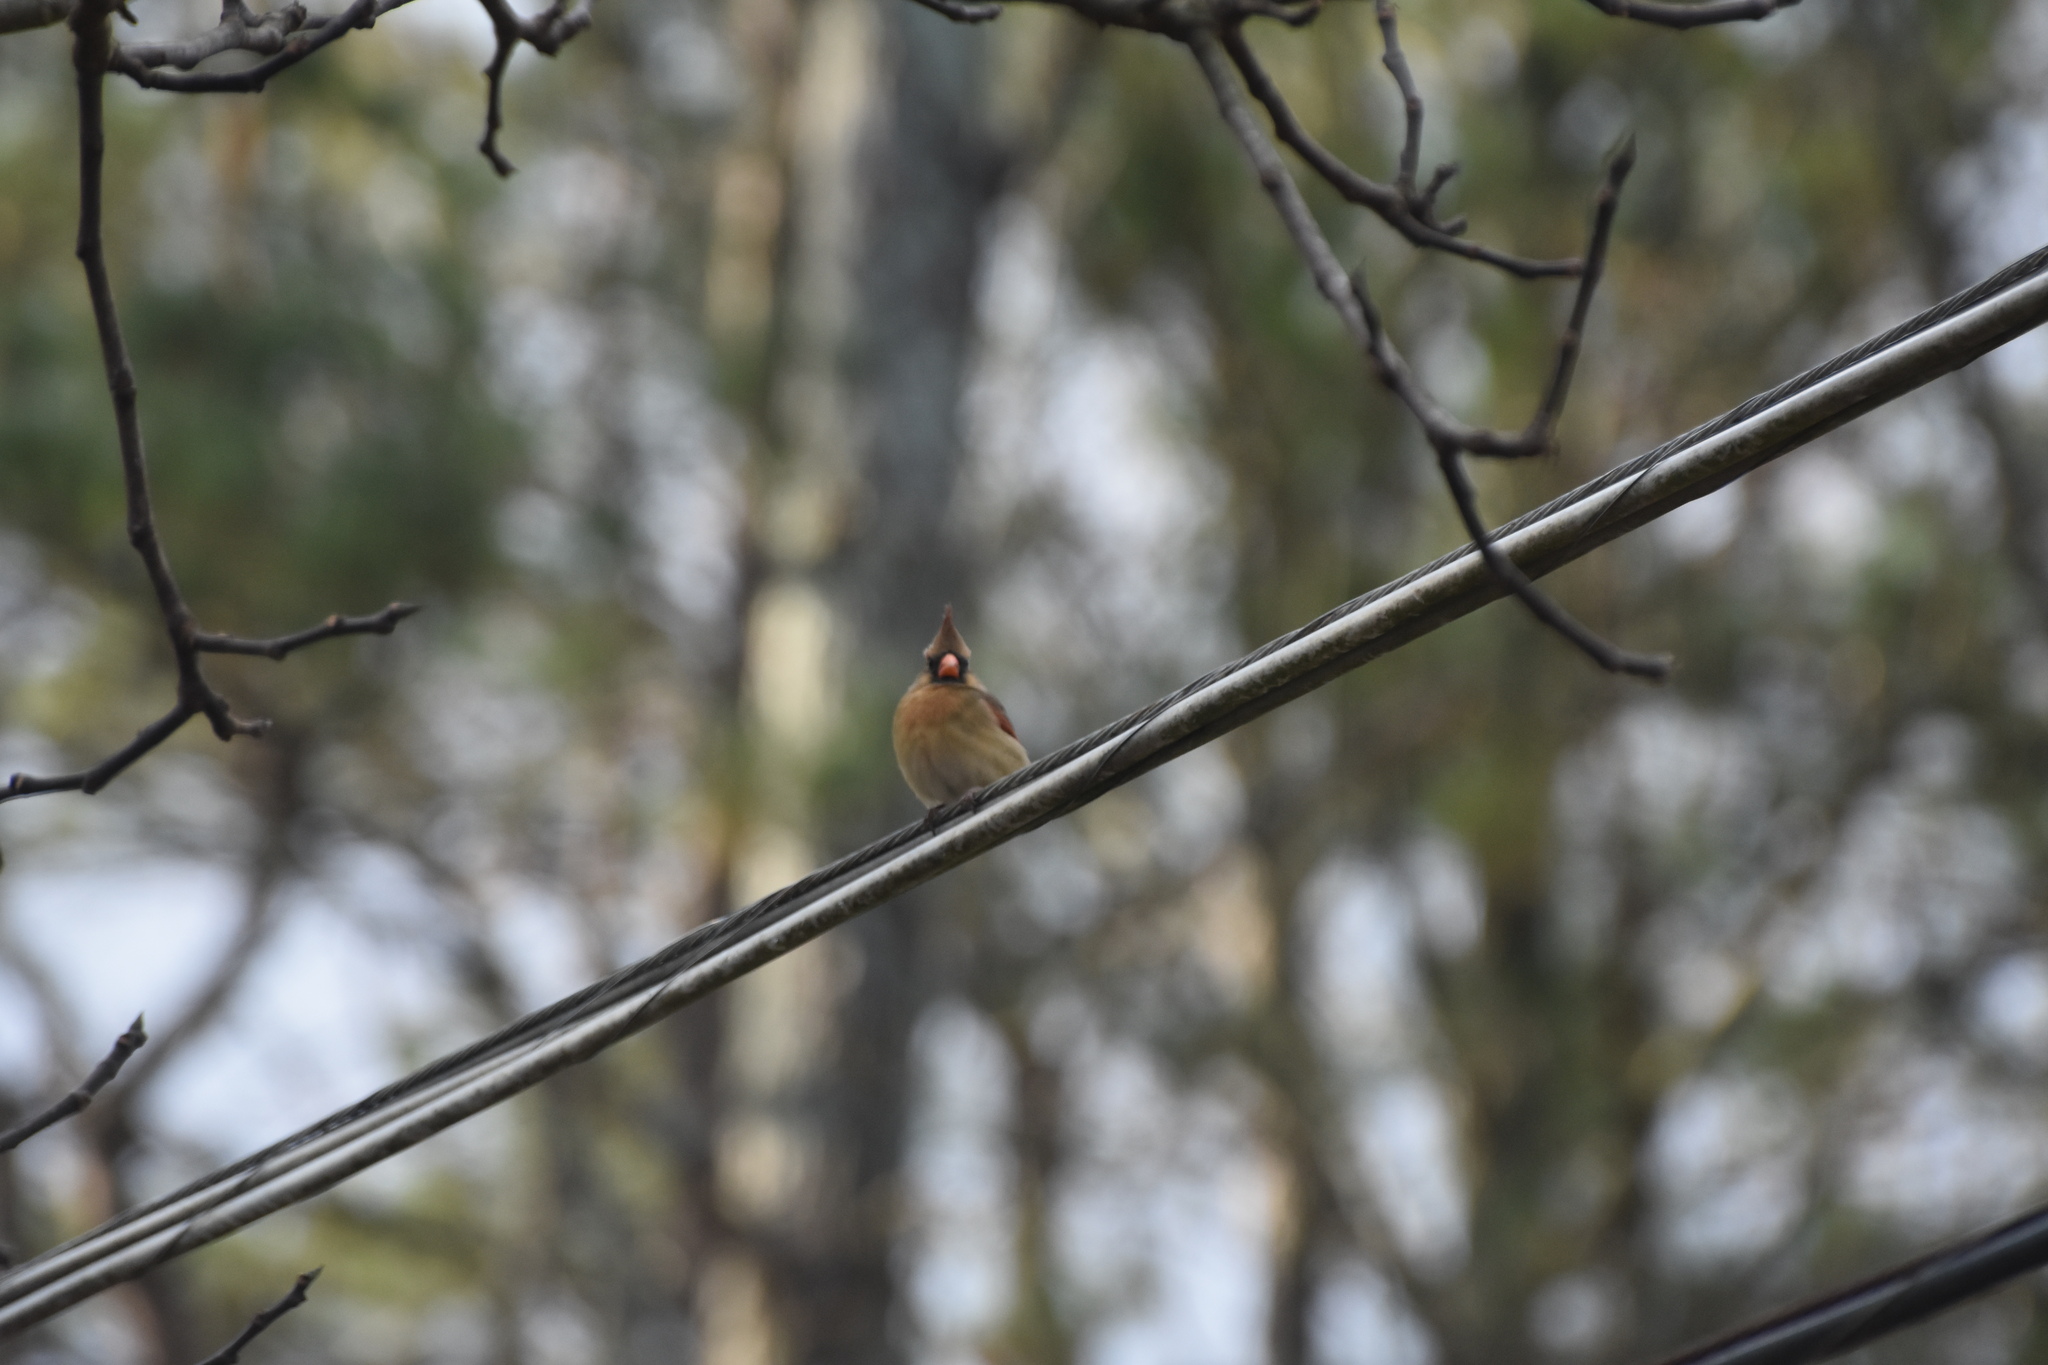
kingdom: Animalia
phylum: Chordata
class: Aves
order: Passeriformes
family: Cardinalidae
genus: Cardinalis
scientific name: Cardinalis cardinalis
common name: Northern cardinal
